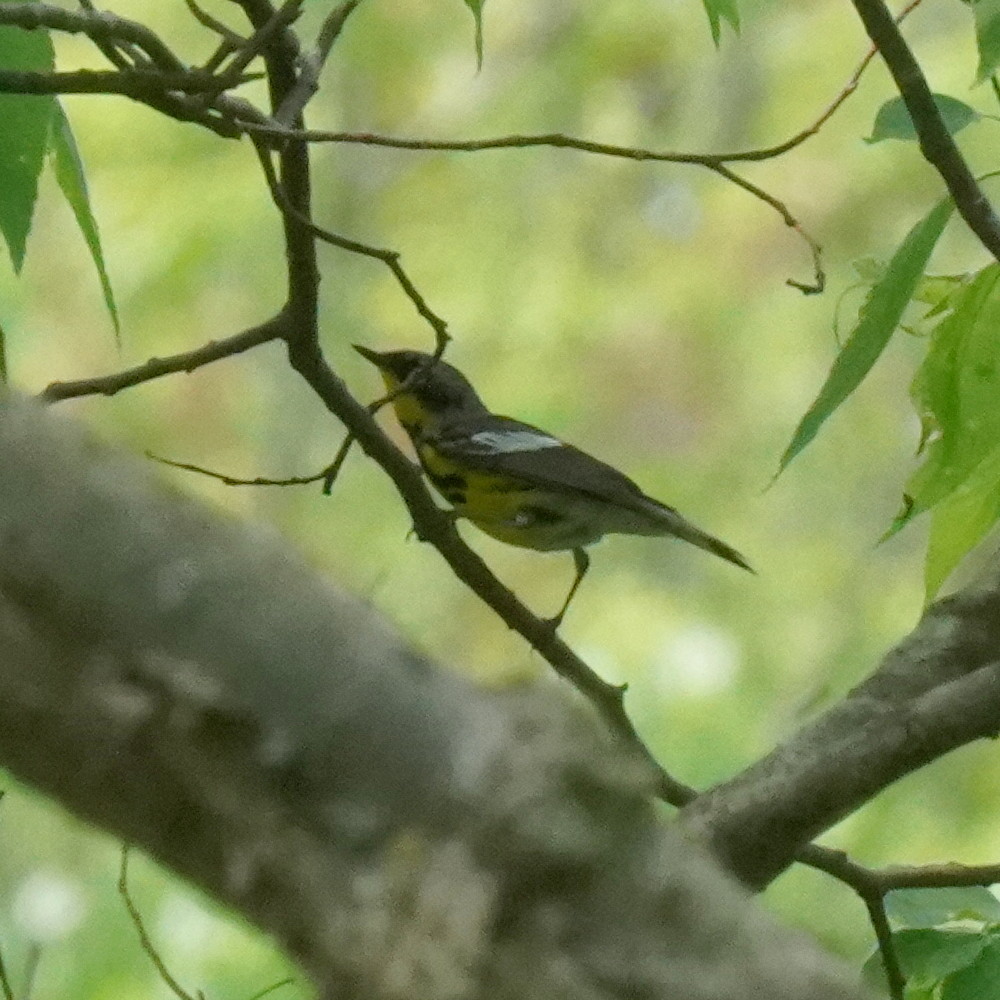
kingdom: Animalia
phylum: Chordata
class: Aves
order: Passeriformes
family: Parulidae
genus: Setophaga
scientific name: Setophaga magnolia
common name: Magnolia warbler
